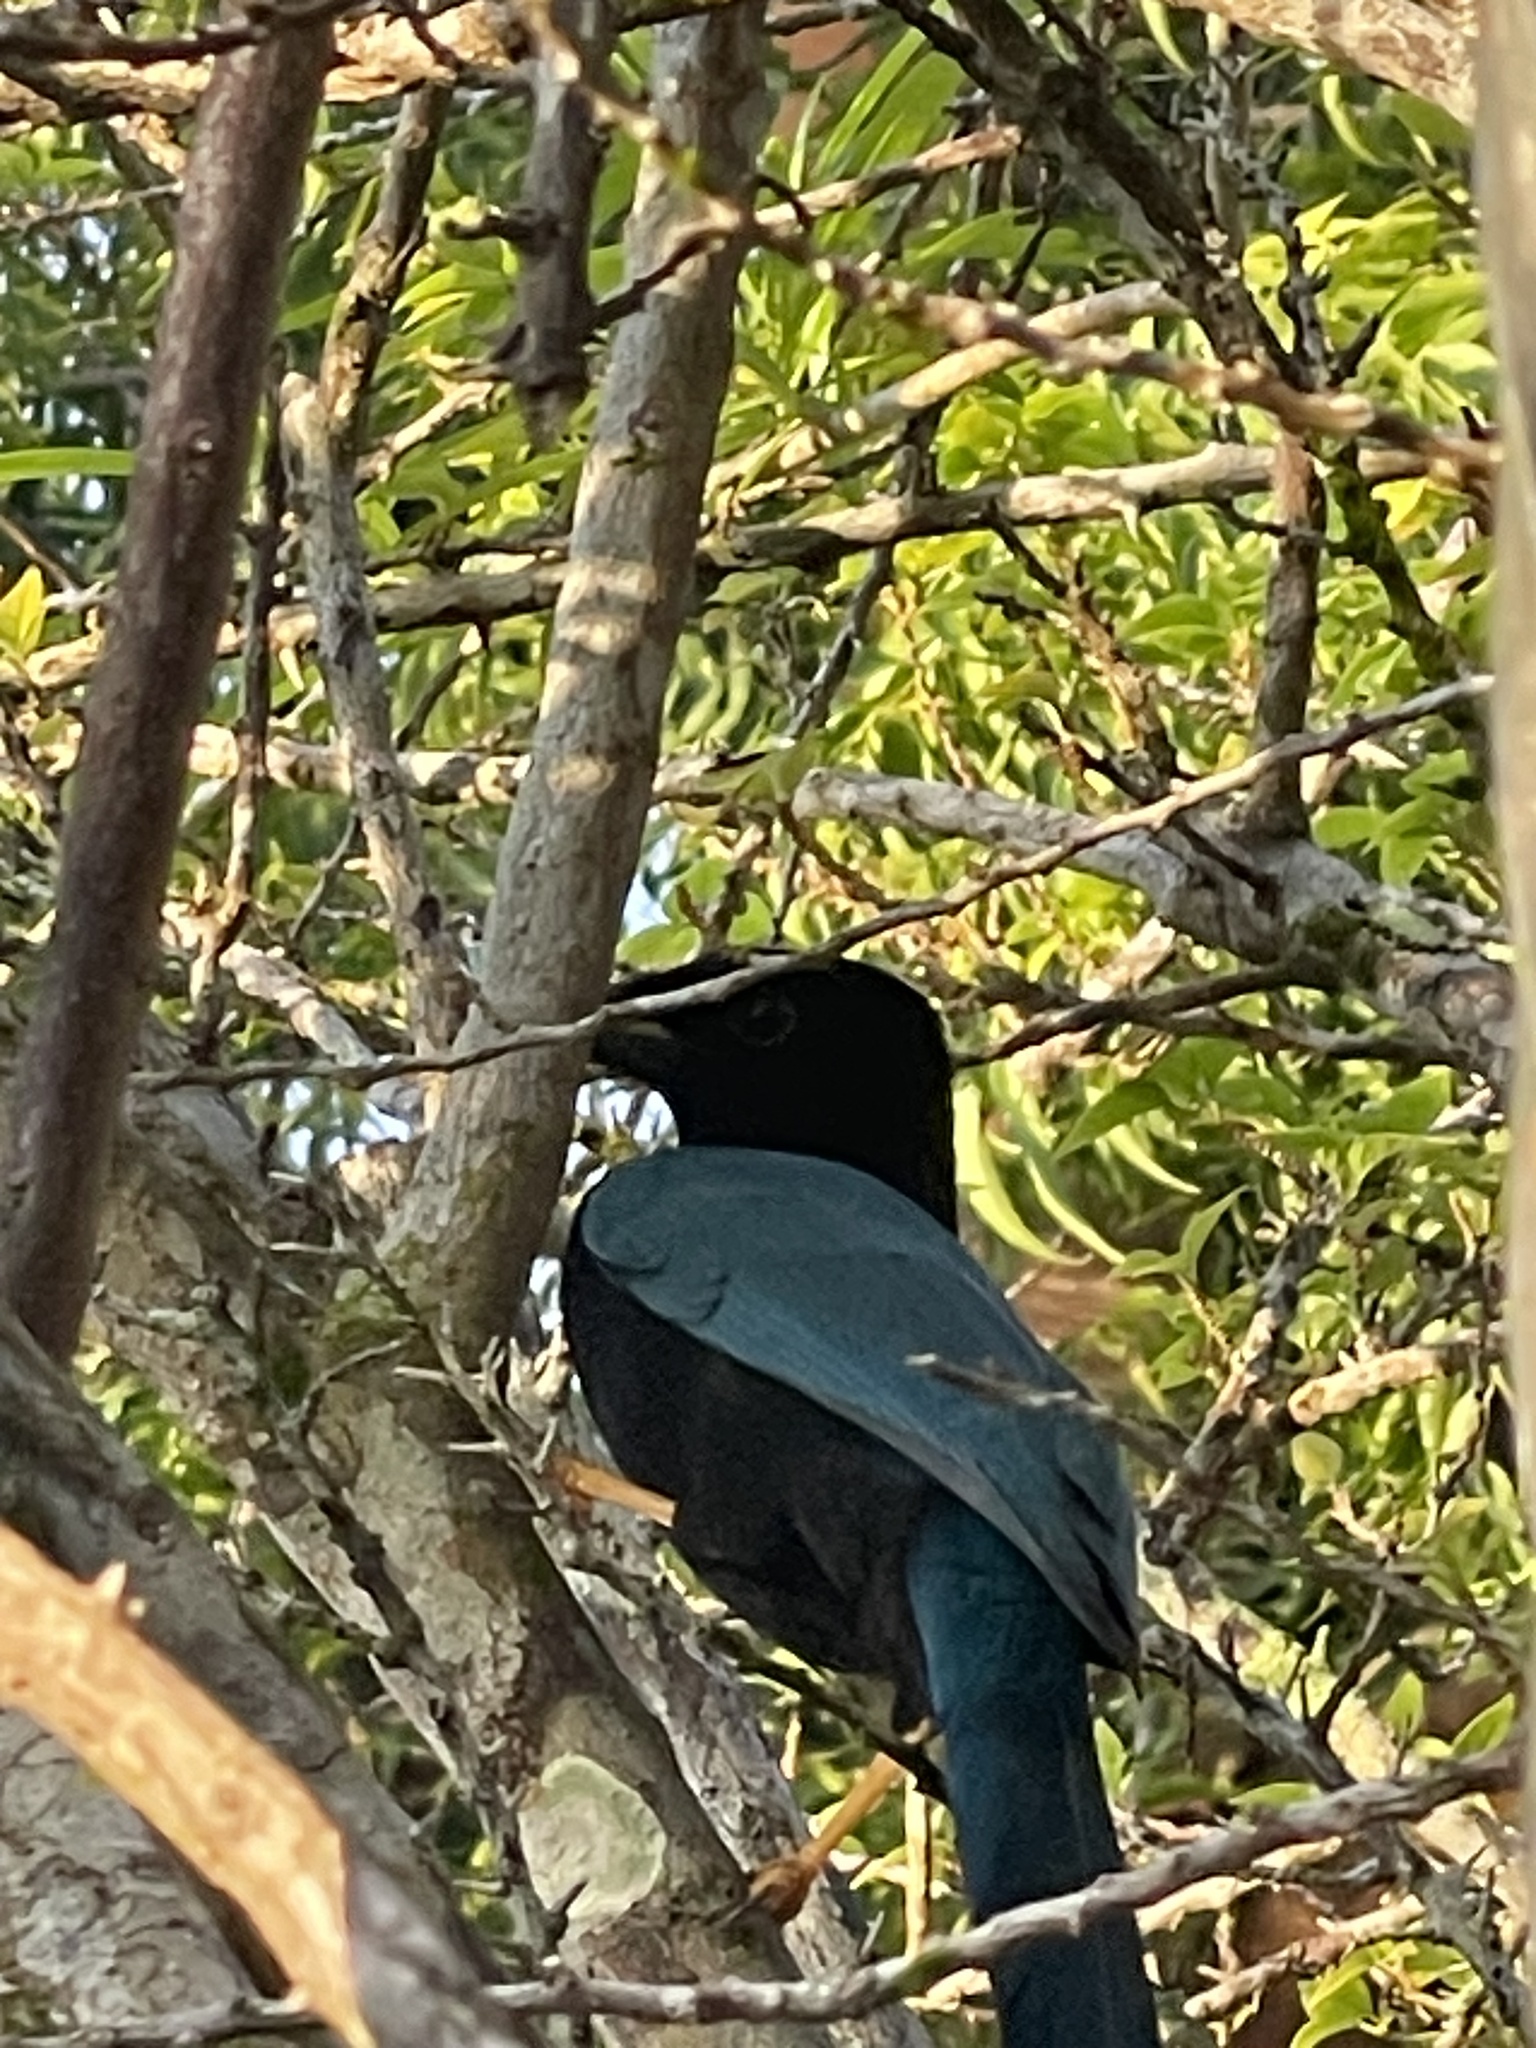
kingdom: Animalia
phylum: Chordata
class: Aves
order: Passeriformes
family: Corvidae
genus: Cyanocorax
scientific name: Cyanocorax yucatanicus
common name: Yucatan jay
